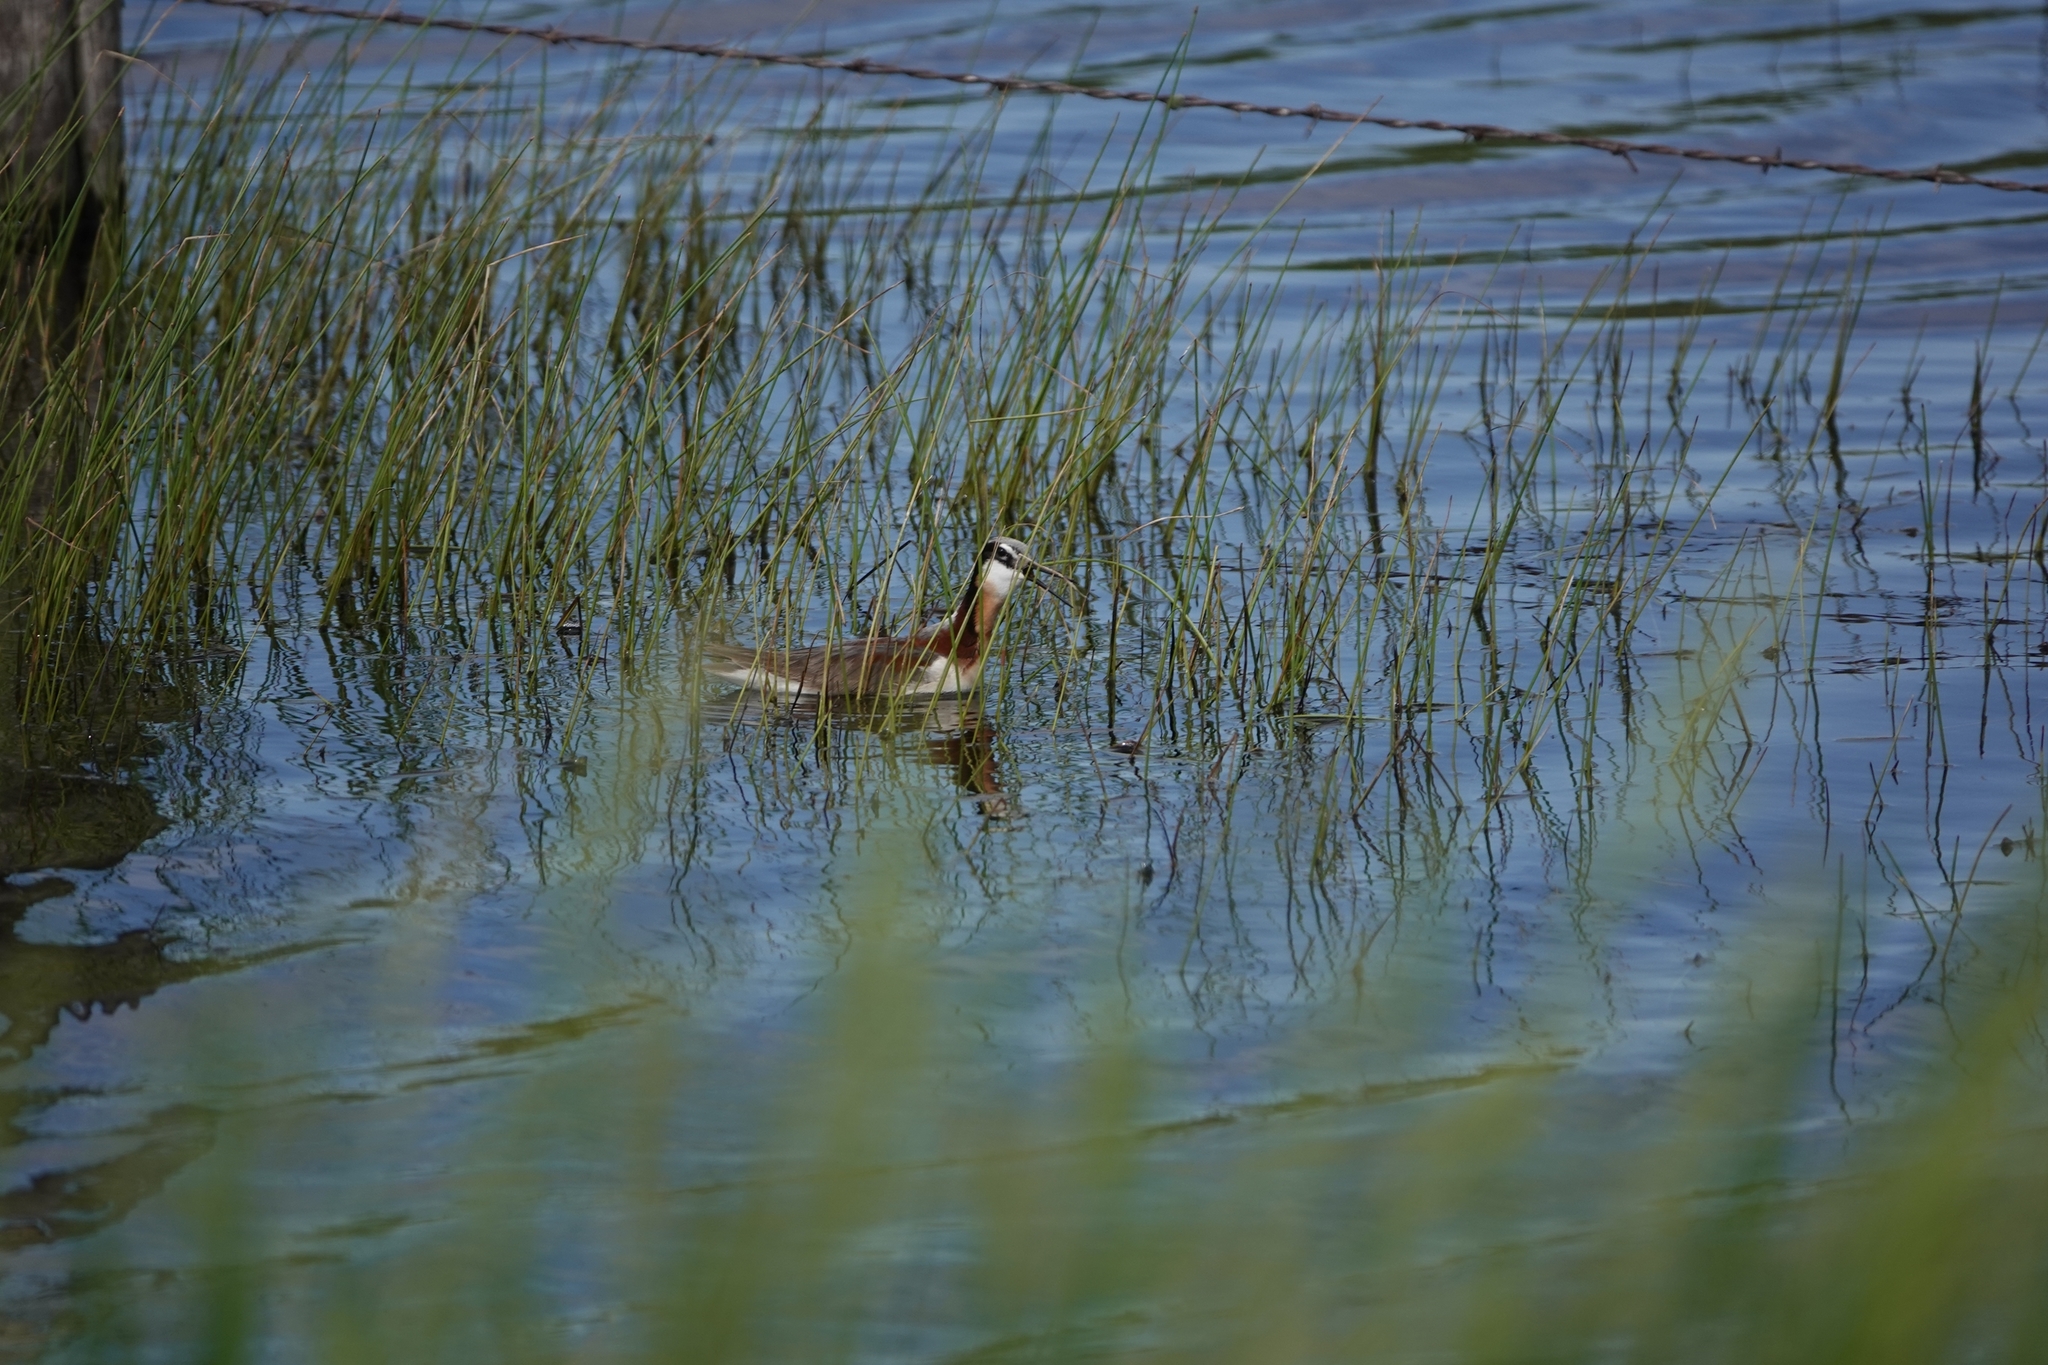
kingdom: Animalia
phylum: Chordata
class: Aves
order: Charadriiformes
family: Scolopacidae
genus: Phalaropus
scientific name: Phalaropus tricolor
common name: Wilson's phalarope
